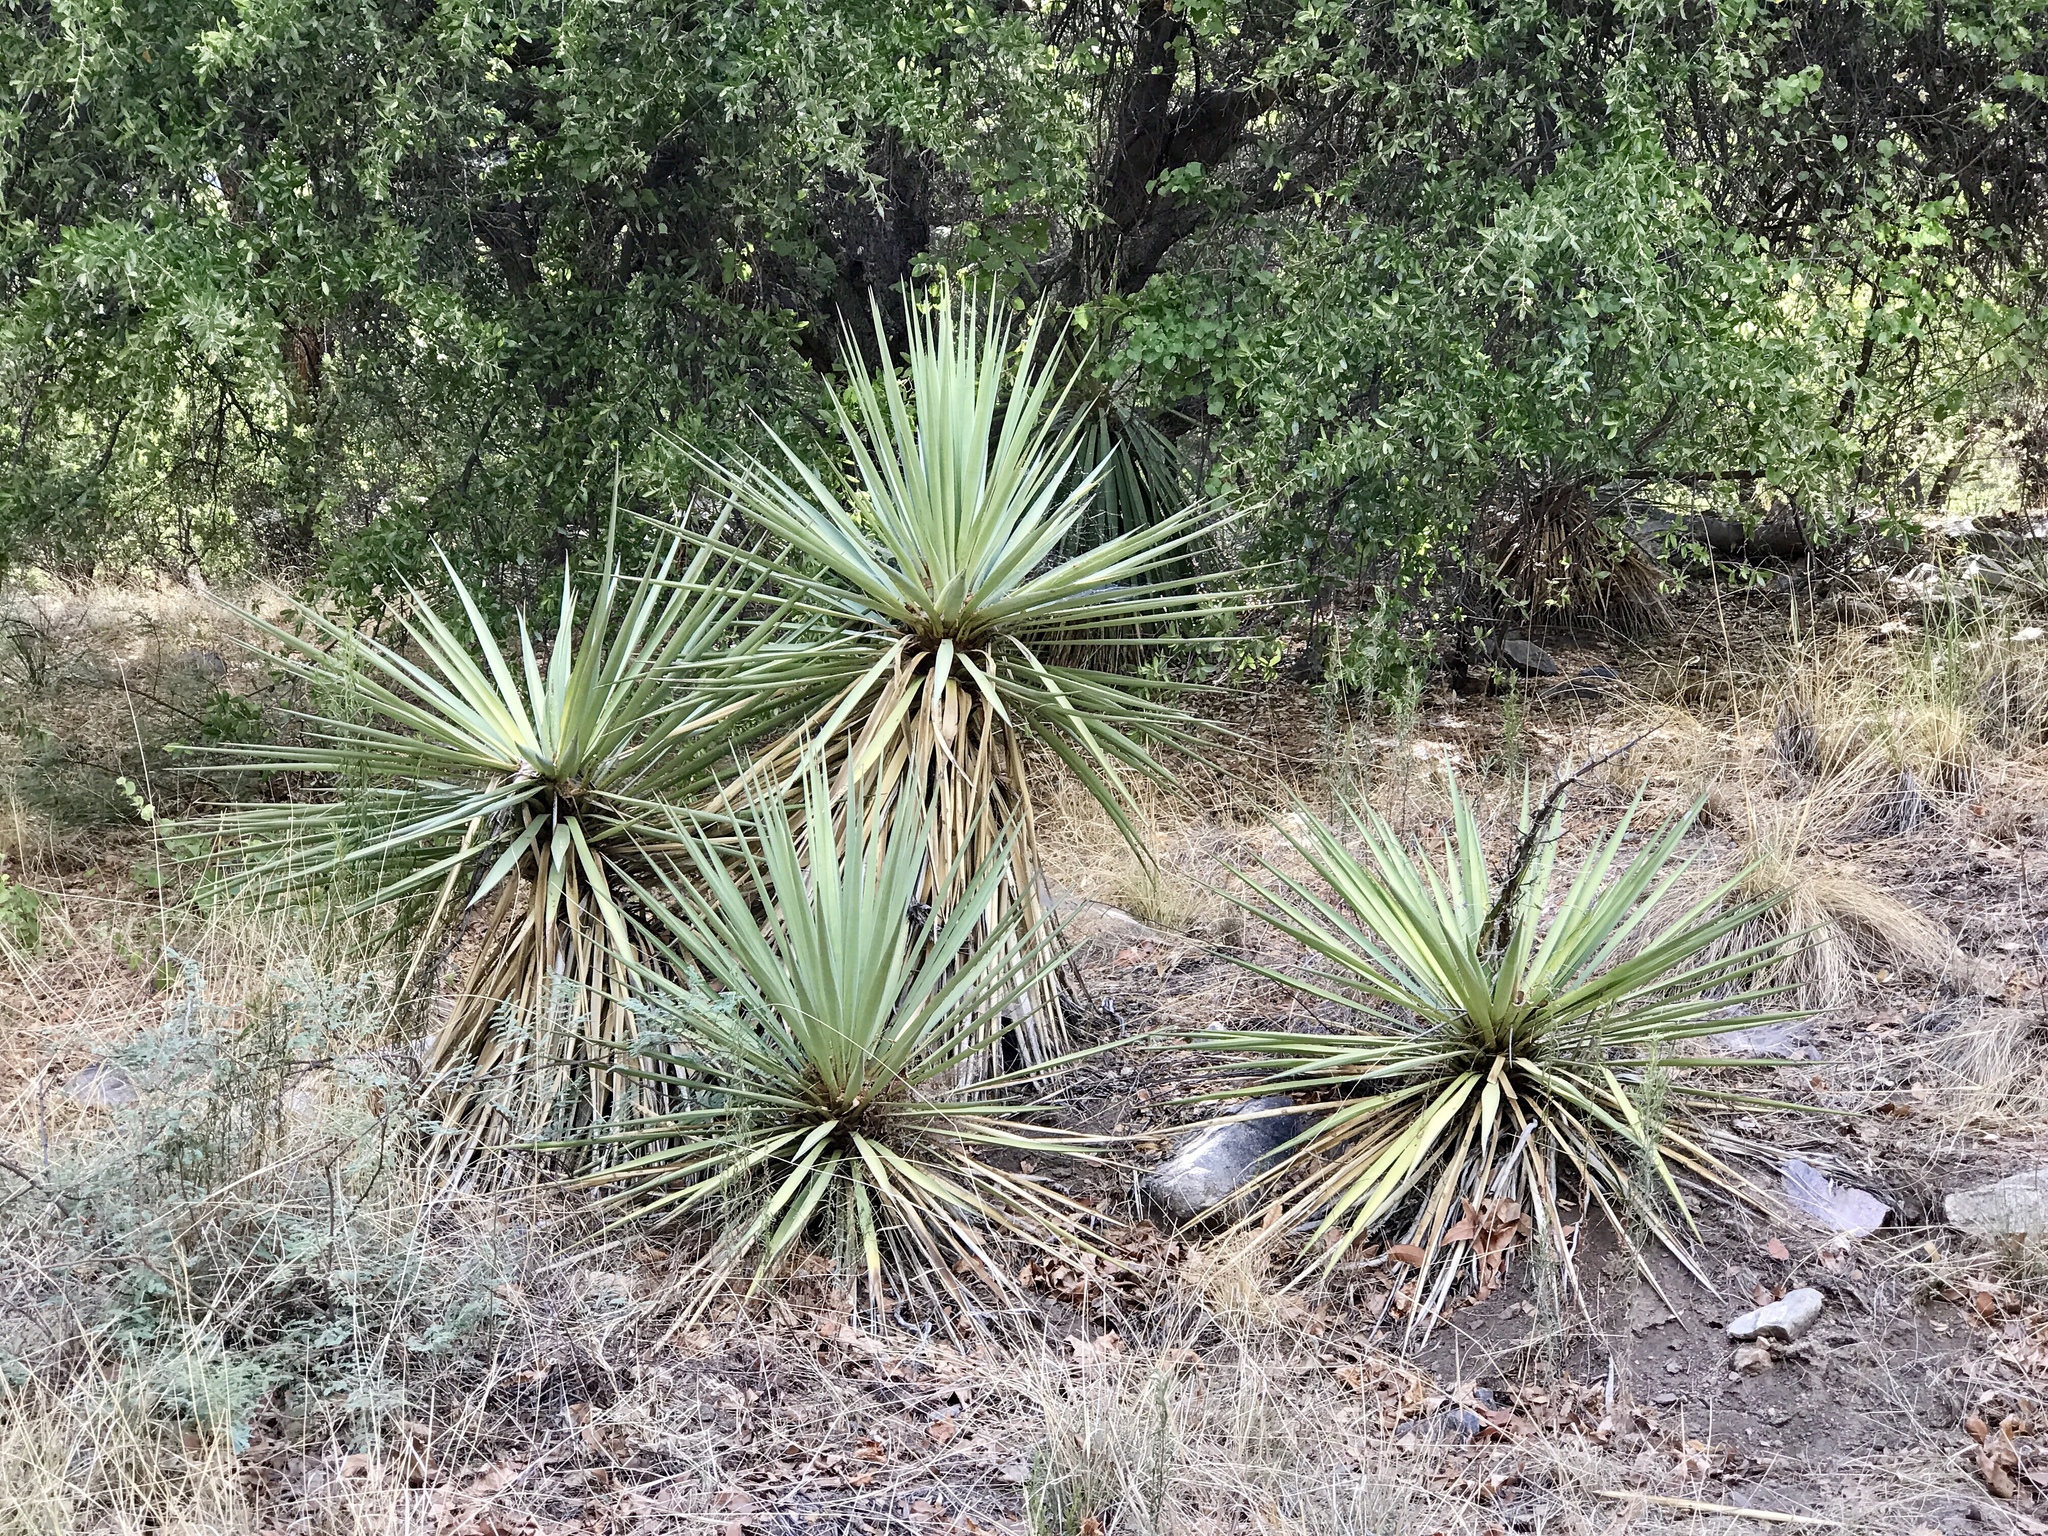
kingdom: Plantae
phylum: Tracheophyta
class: Liliopsida
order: Asparagales
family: Asparagaceae
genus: Yucca
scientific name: Yucca madrensis
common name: Hoary yucca
